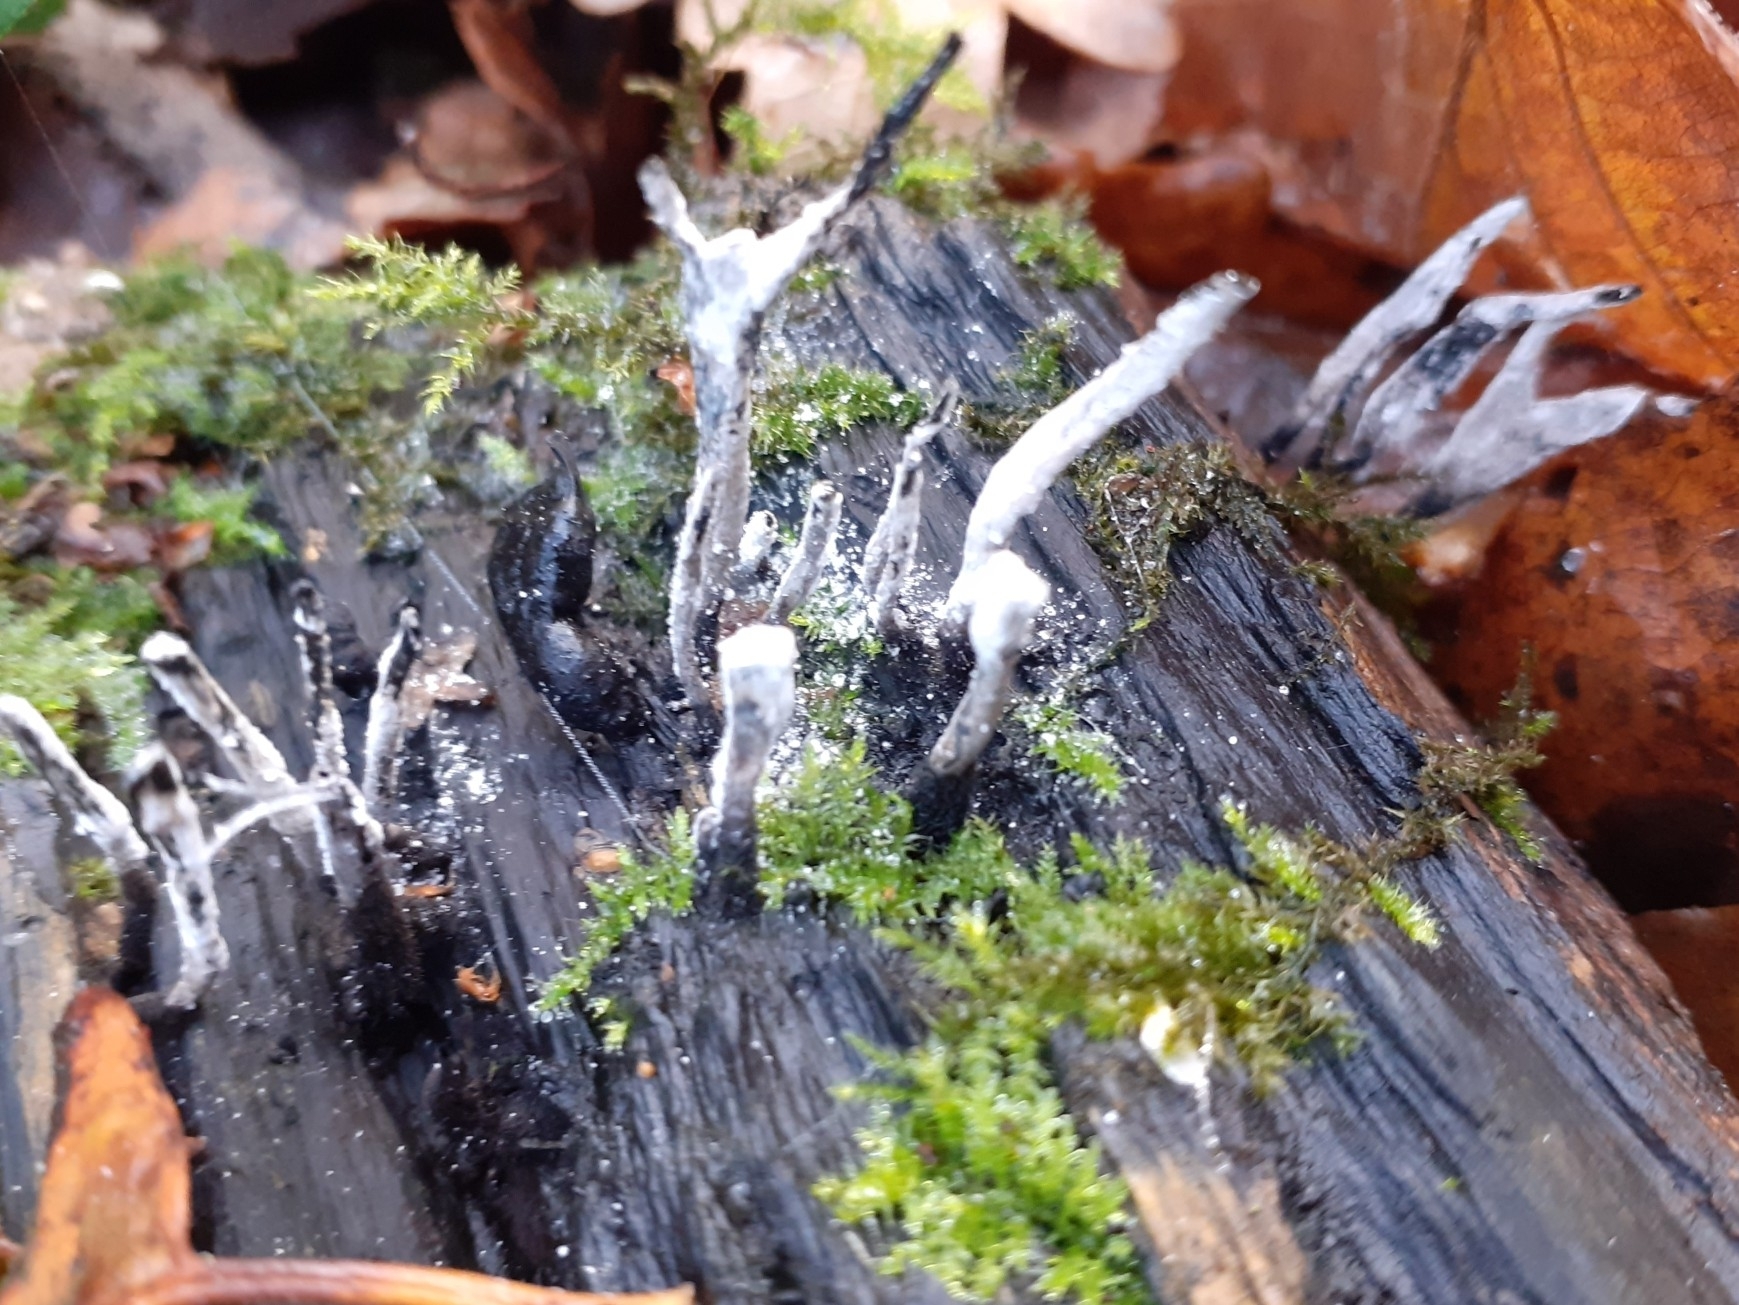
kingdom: Fungi
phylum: Ascomycota
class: Sordariomycetes
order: Xylariales
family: Xylariaceae
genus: Xylaria
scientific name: Xylaria hypoxylon
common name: Candle-snuff fungus
